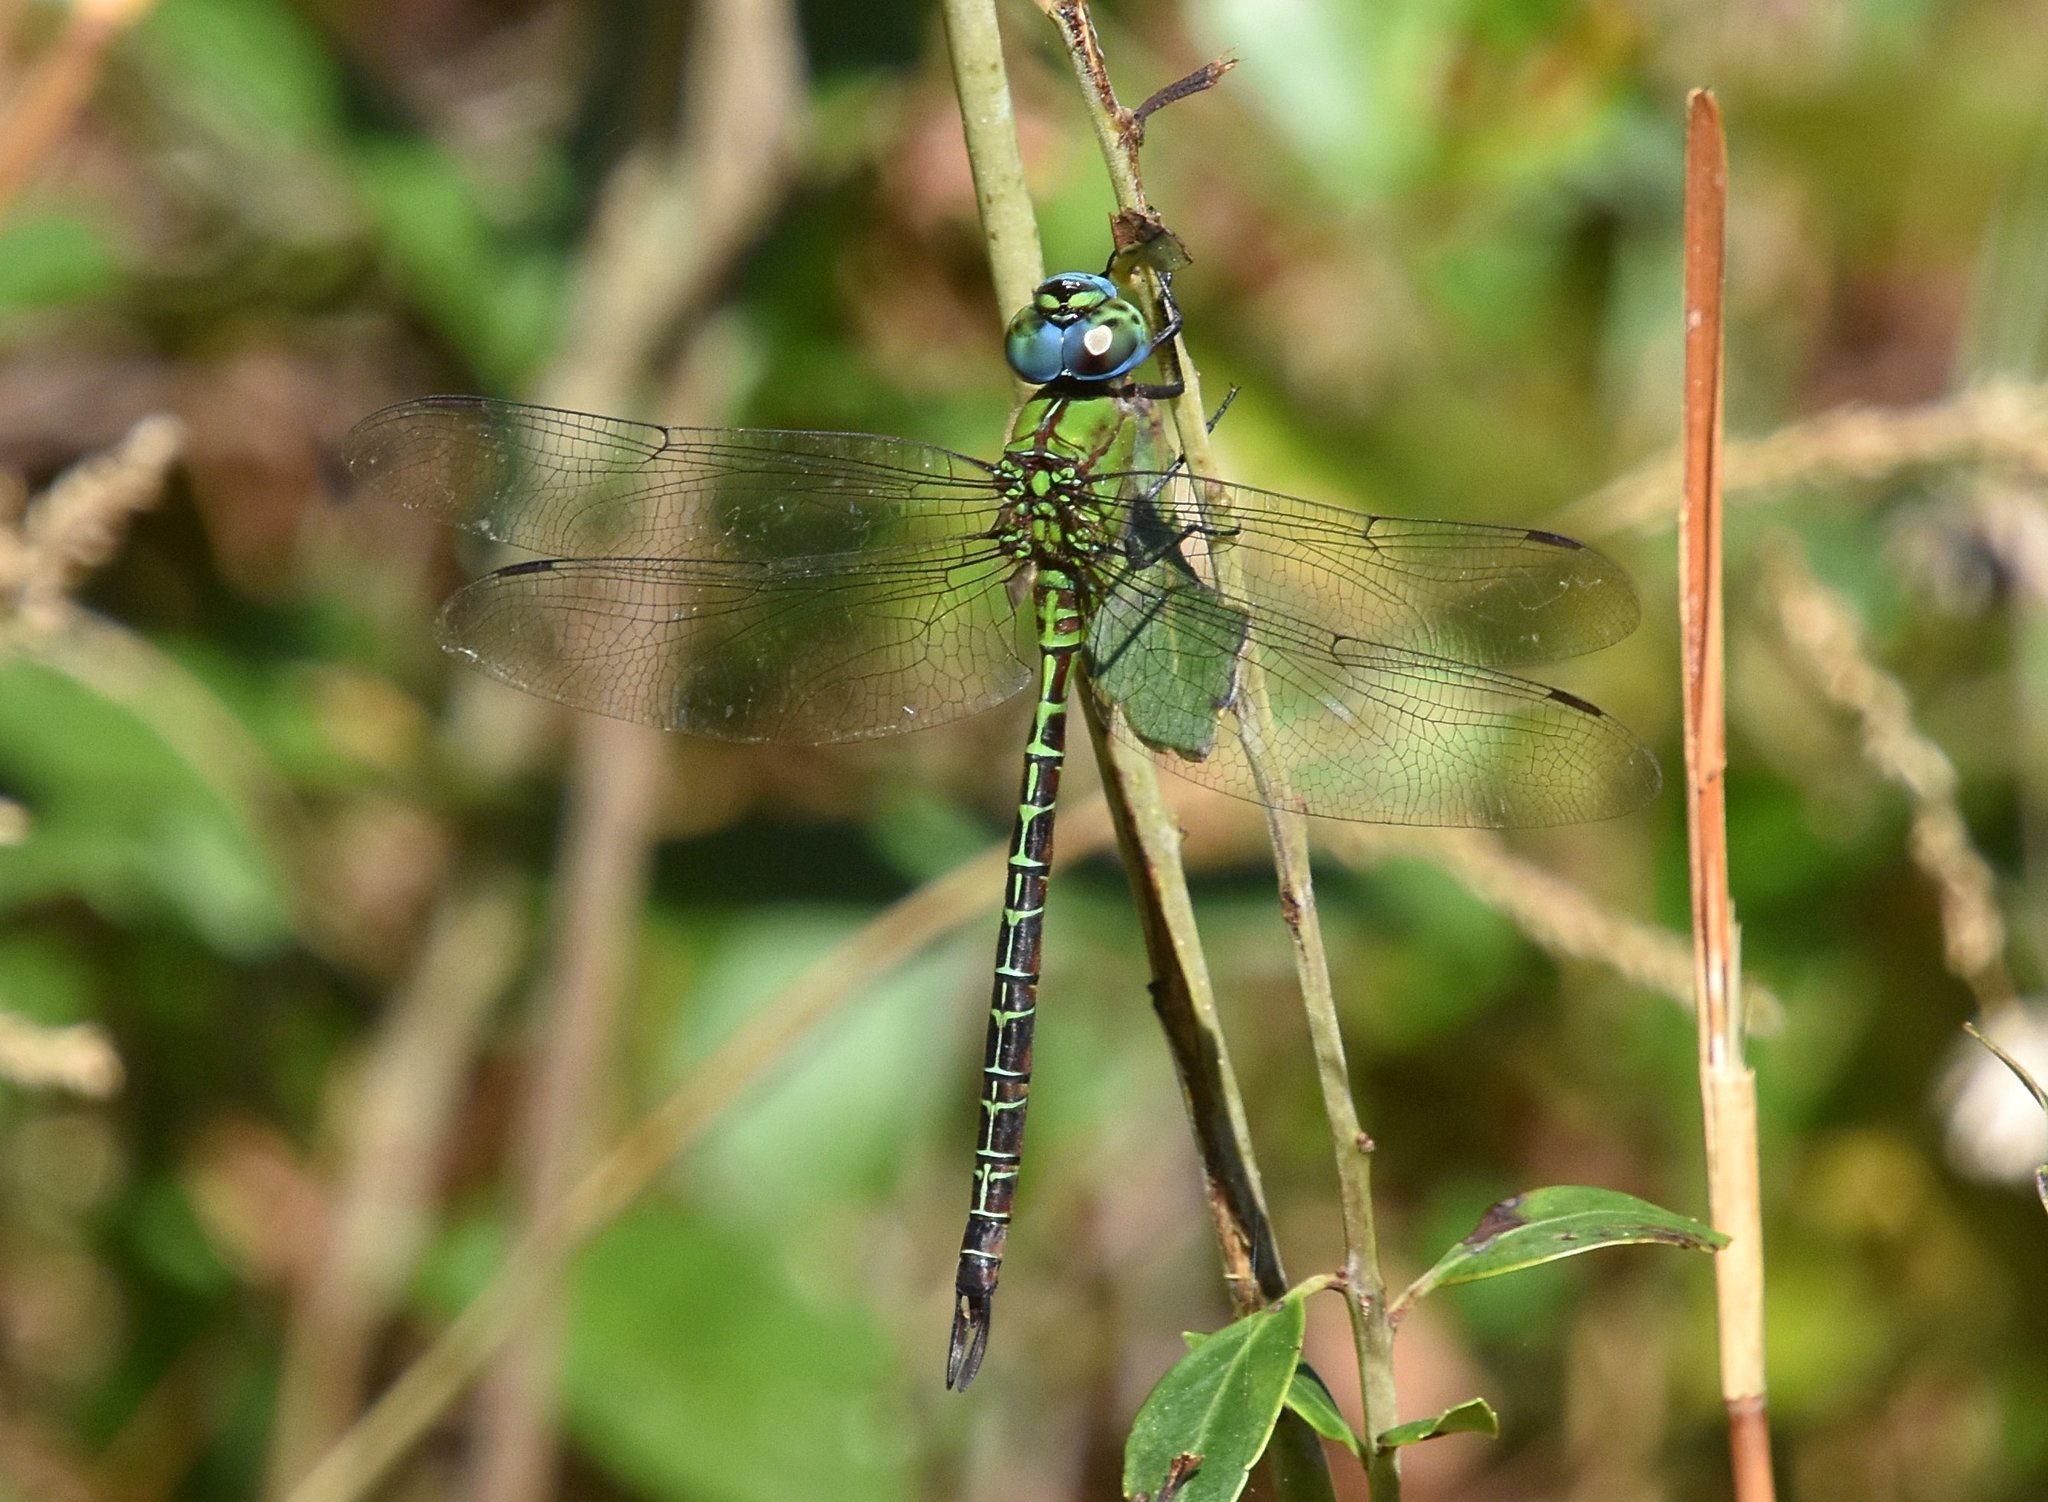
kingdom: Animalia
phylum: Arthropoda
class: Insecta
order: Odonata
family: Aeshnidae
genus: Coryphaeschna
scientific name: Coryphaeschna adnexa
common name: Blue-faced darner
